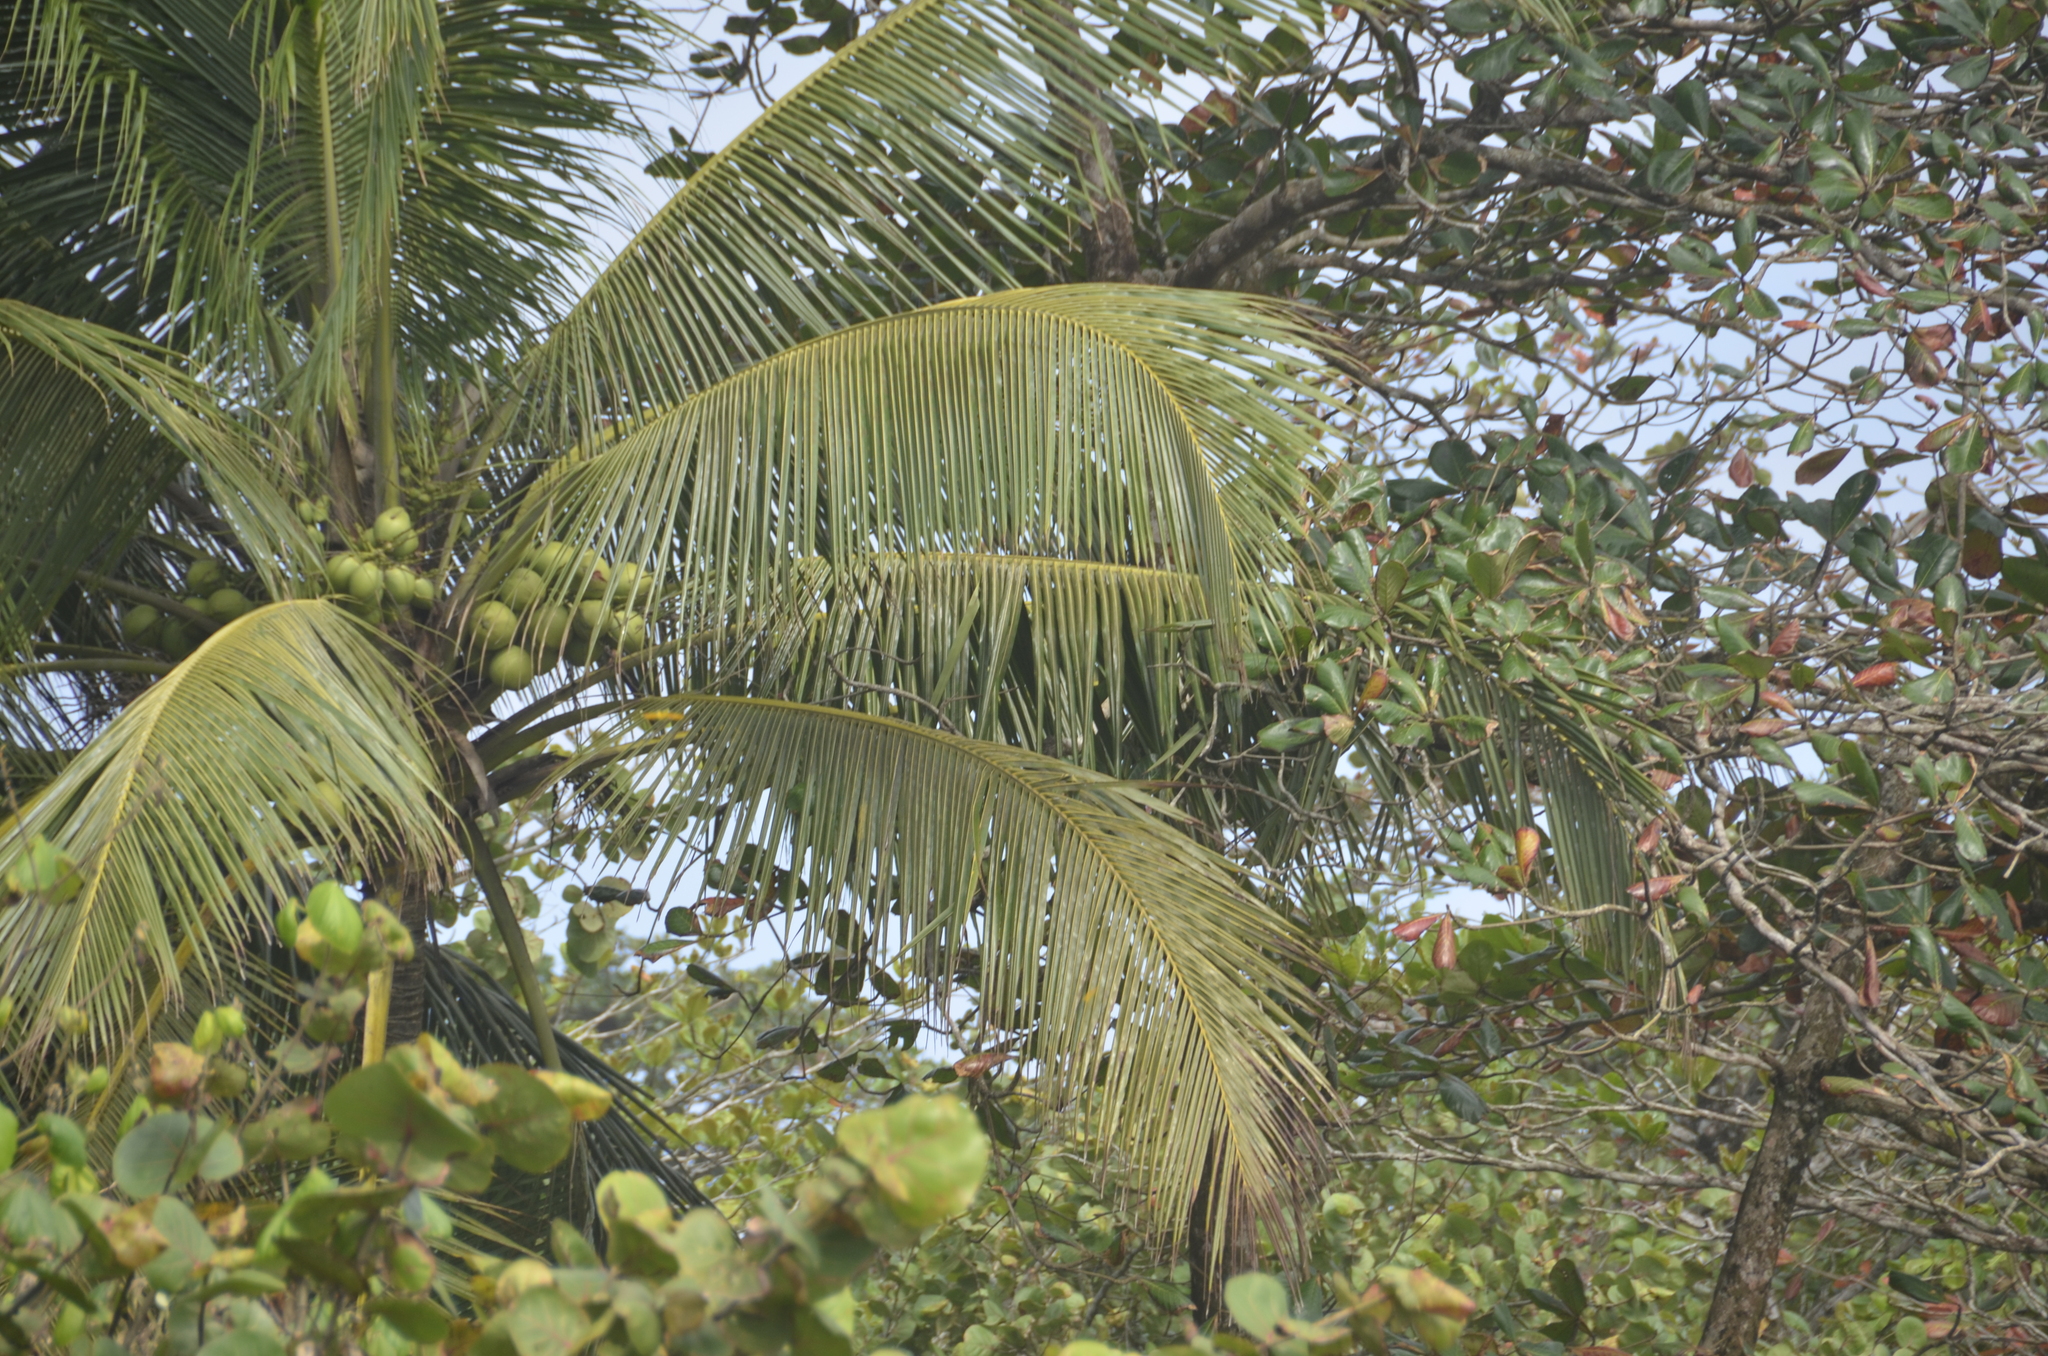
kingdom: Plantae
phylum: Tracheophyta
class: Liliopsida
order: Arecales
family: Arecaceae
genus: Cocos
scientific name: Cocos nucifera
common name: Coconut palm
